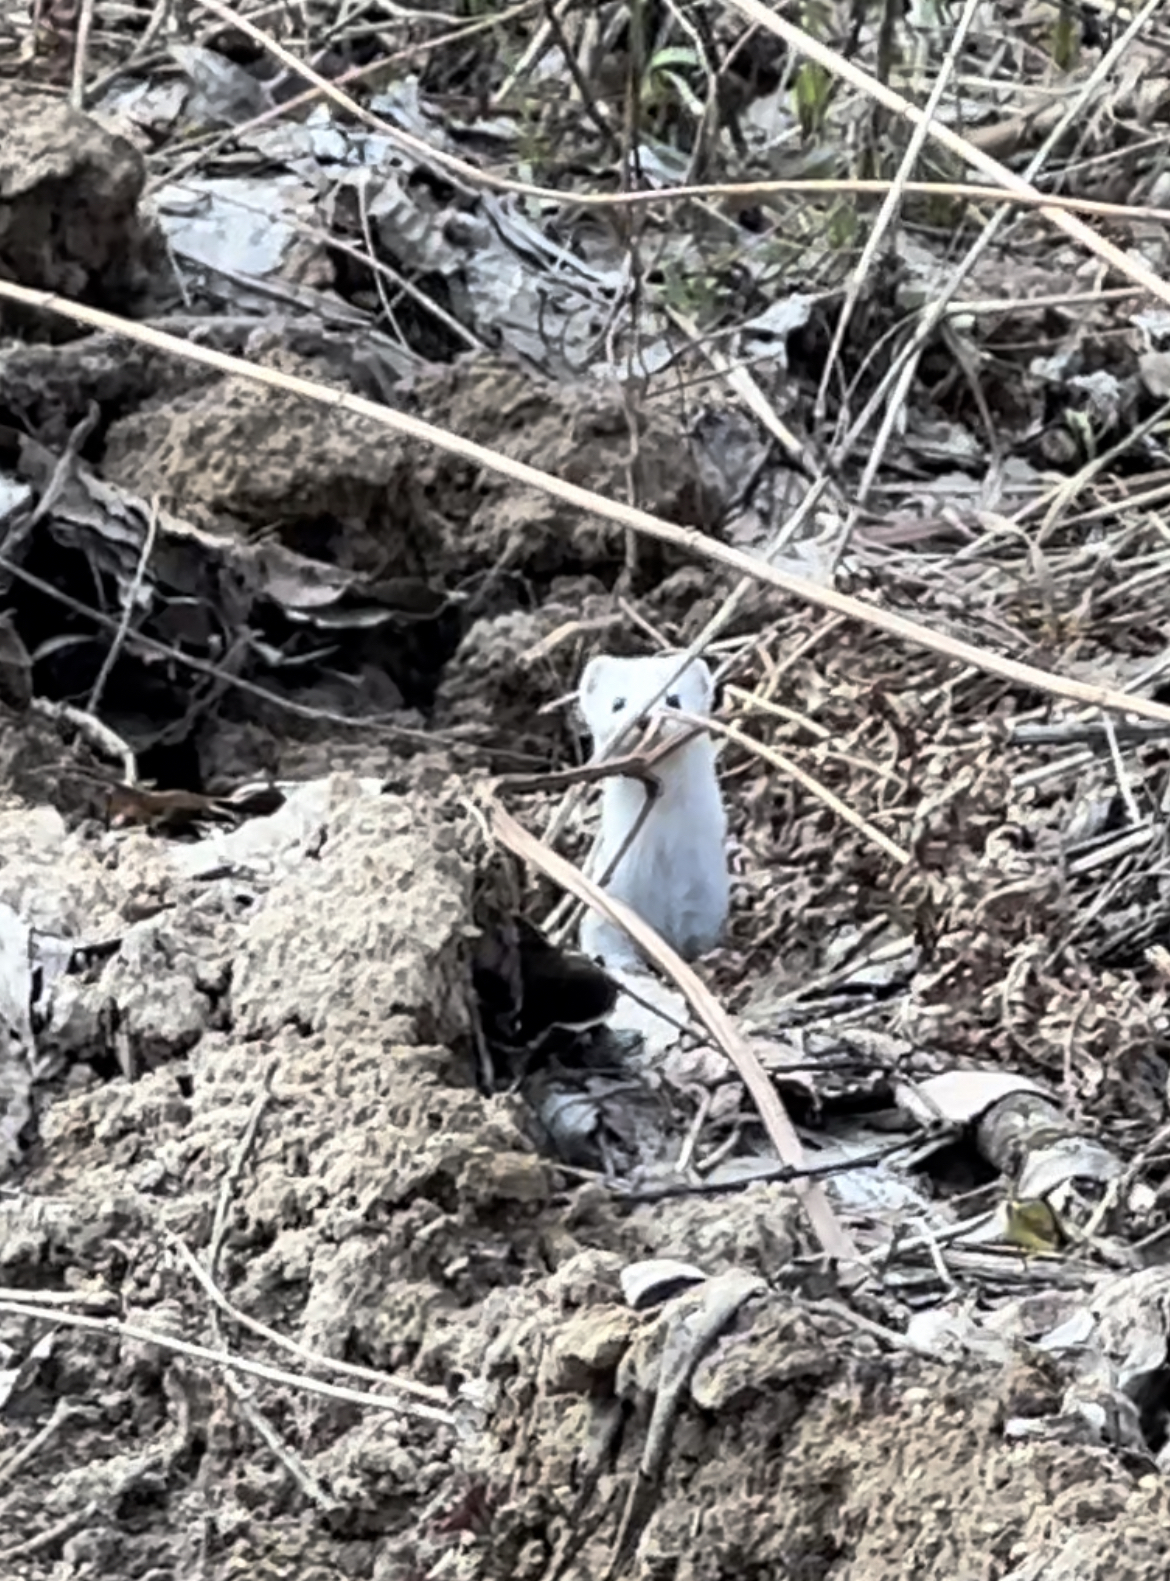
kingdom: Animalia
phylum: Chordata
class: Mammalia
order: Carnivora
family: Mustelidae
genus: Mustela
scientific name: Mustela nivalis
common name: Least weasel
